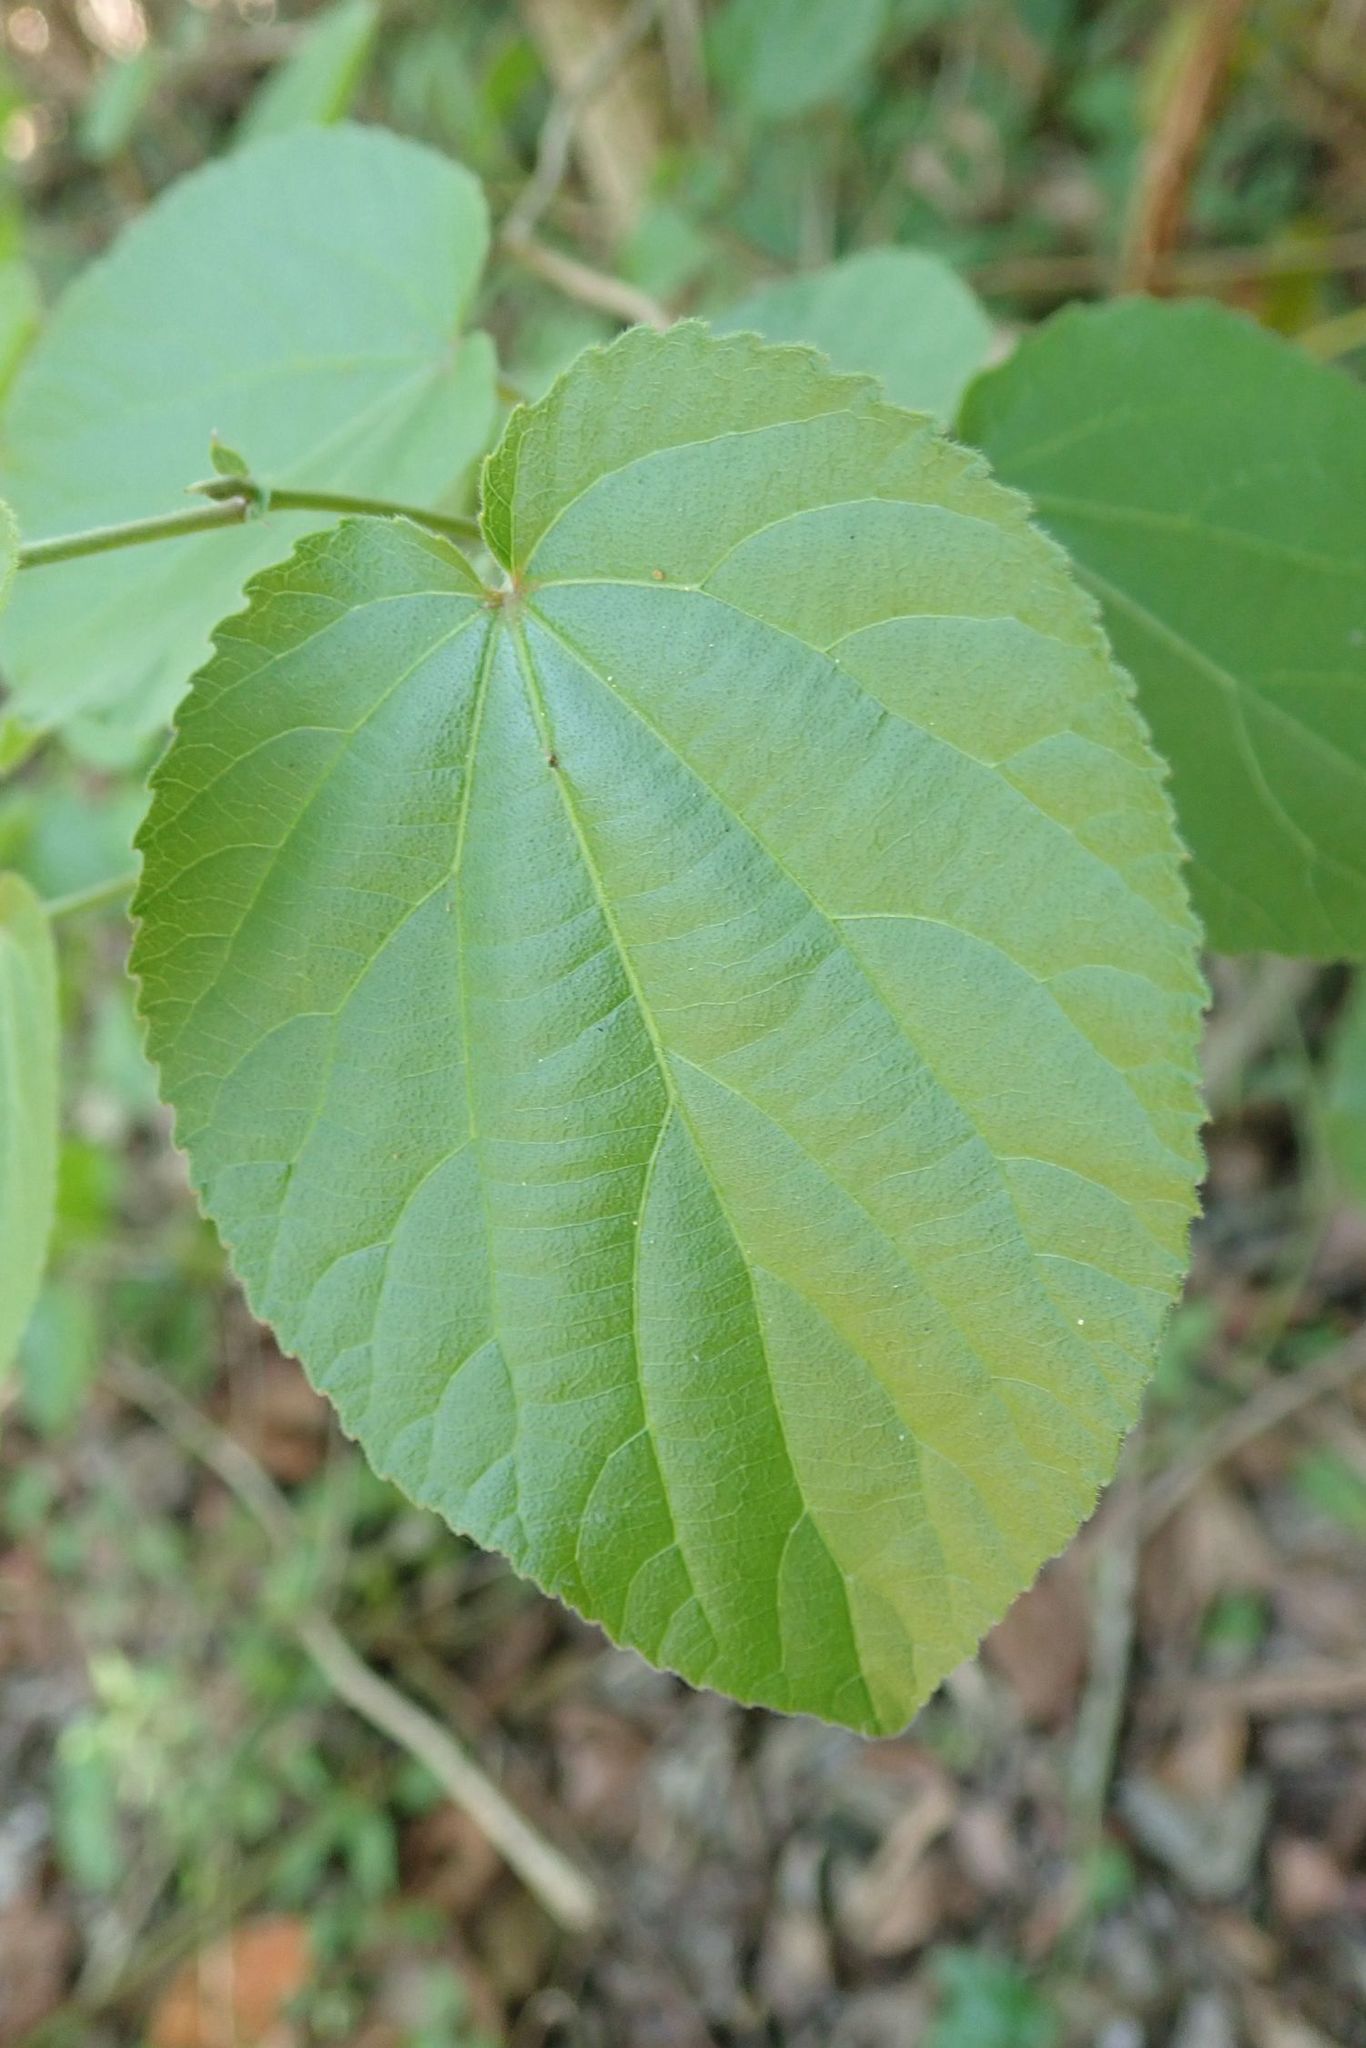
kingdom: Plantae
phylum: Tracheophyta
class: Magnoliopsida
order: Malpighiales
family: Salicaceae
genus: Trimeria
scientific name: Trimeria grandifolia
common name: Wild mulberry
